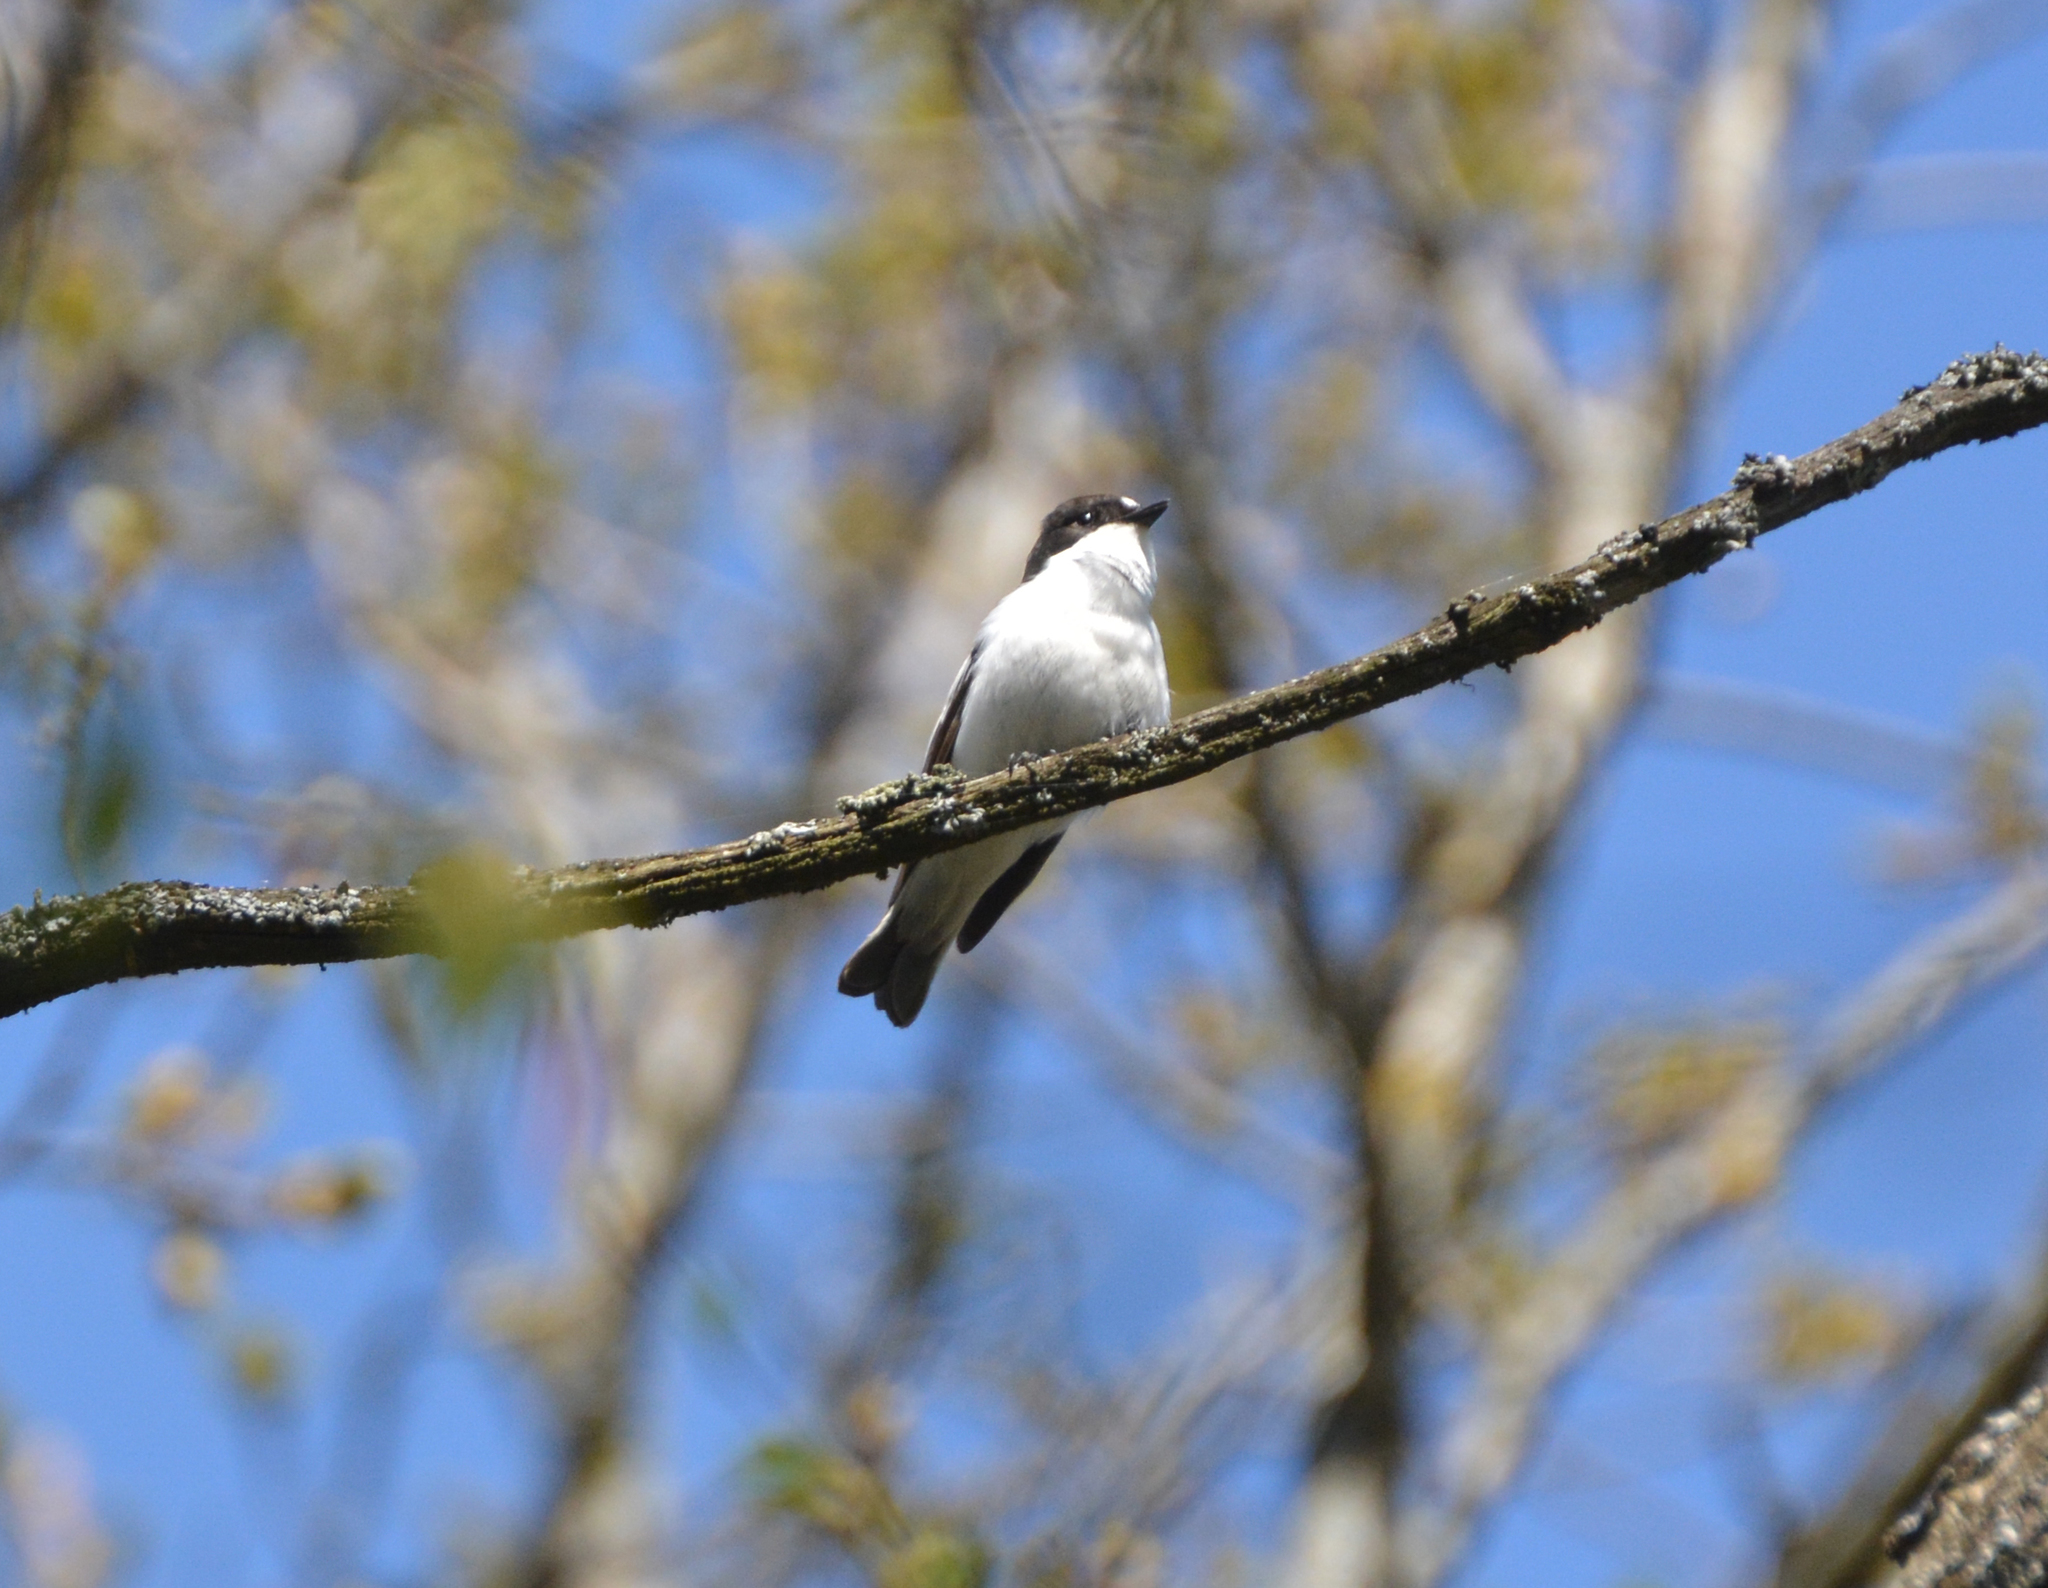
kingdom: Animalia
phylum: Chordata
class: Aves
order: Passeriformes
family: Muscicapidae
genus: Ficedula
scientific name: Ficedula hypoleuca
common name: European pied flycatcher
